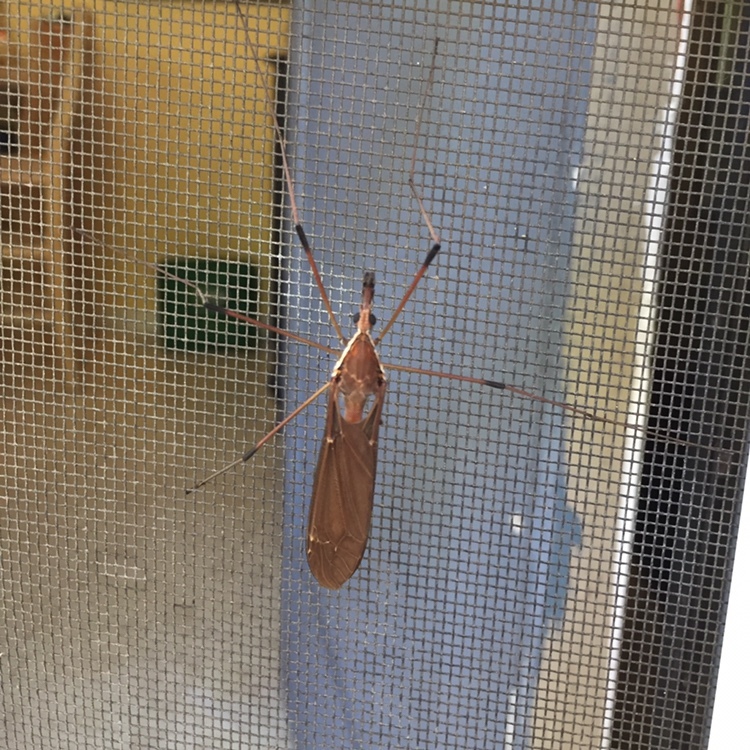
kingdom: Animalia
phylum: Arthropoda
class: Insecta
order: Diptera
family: Tipulidae
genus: Holorusia
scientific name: Holorusia hespera
